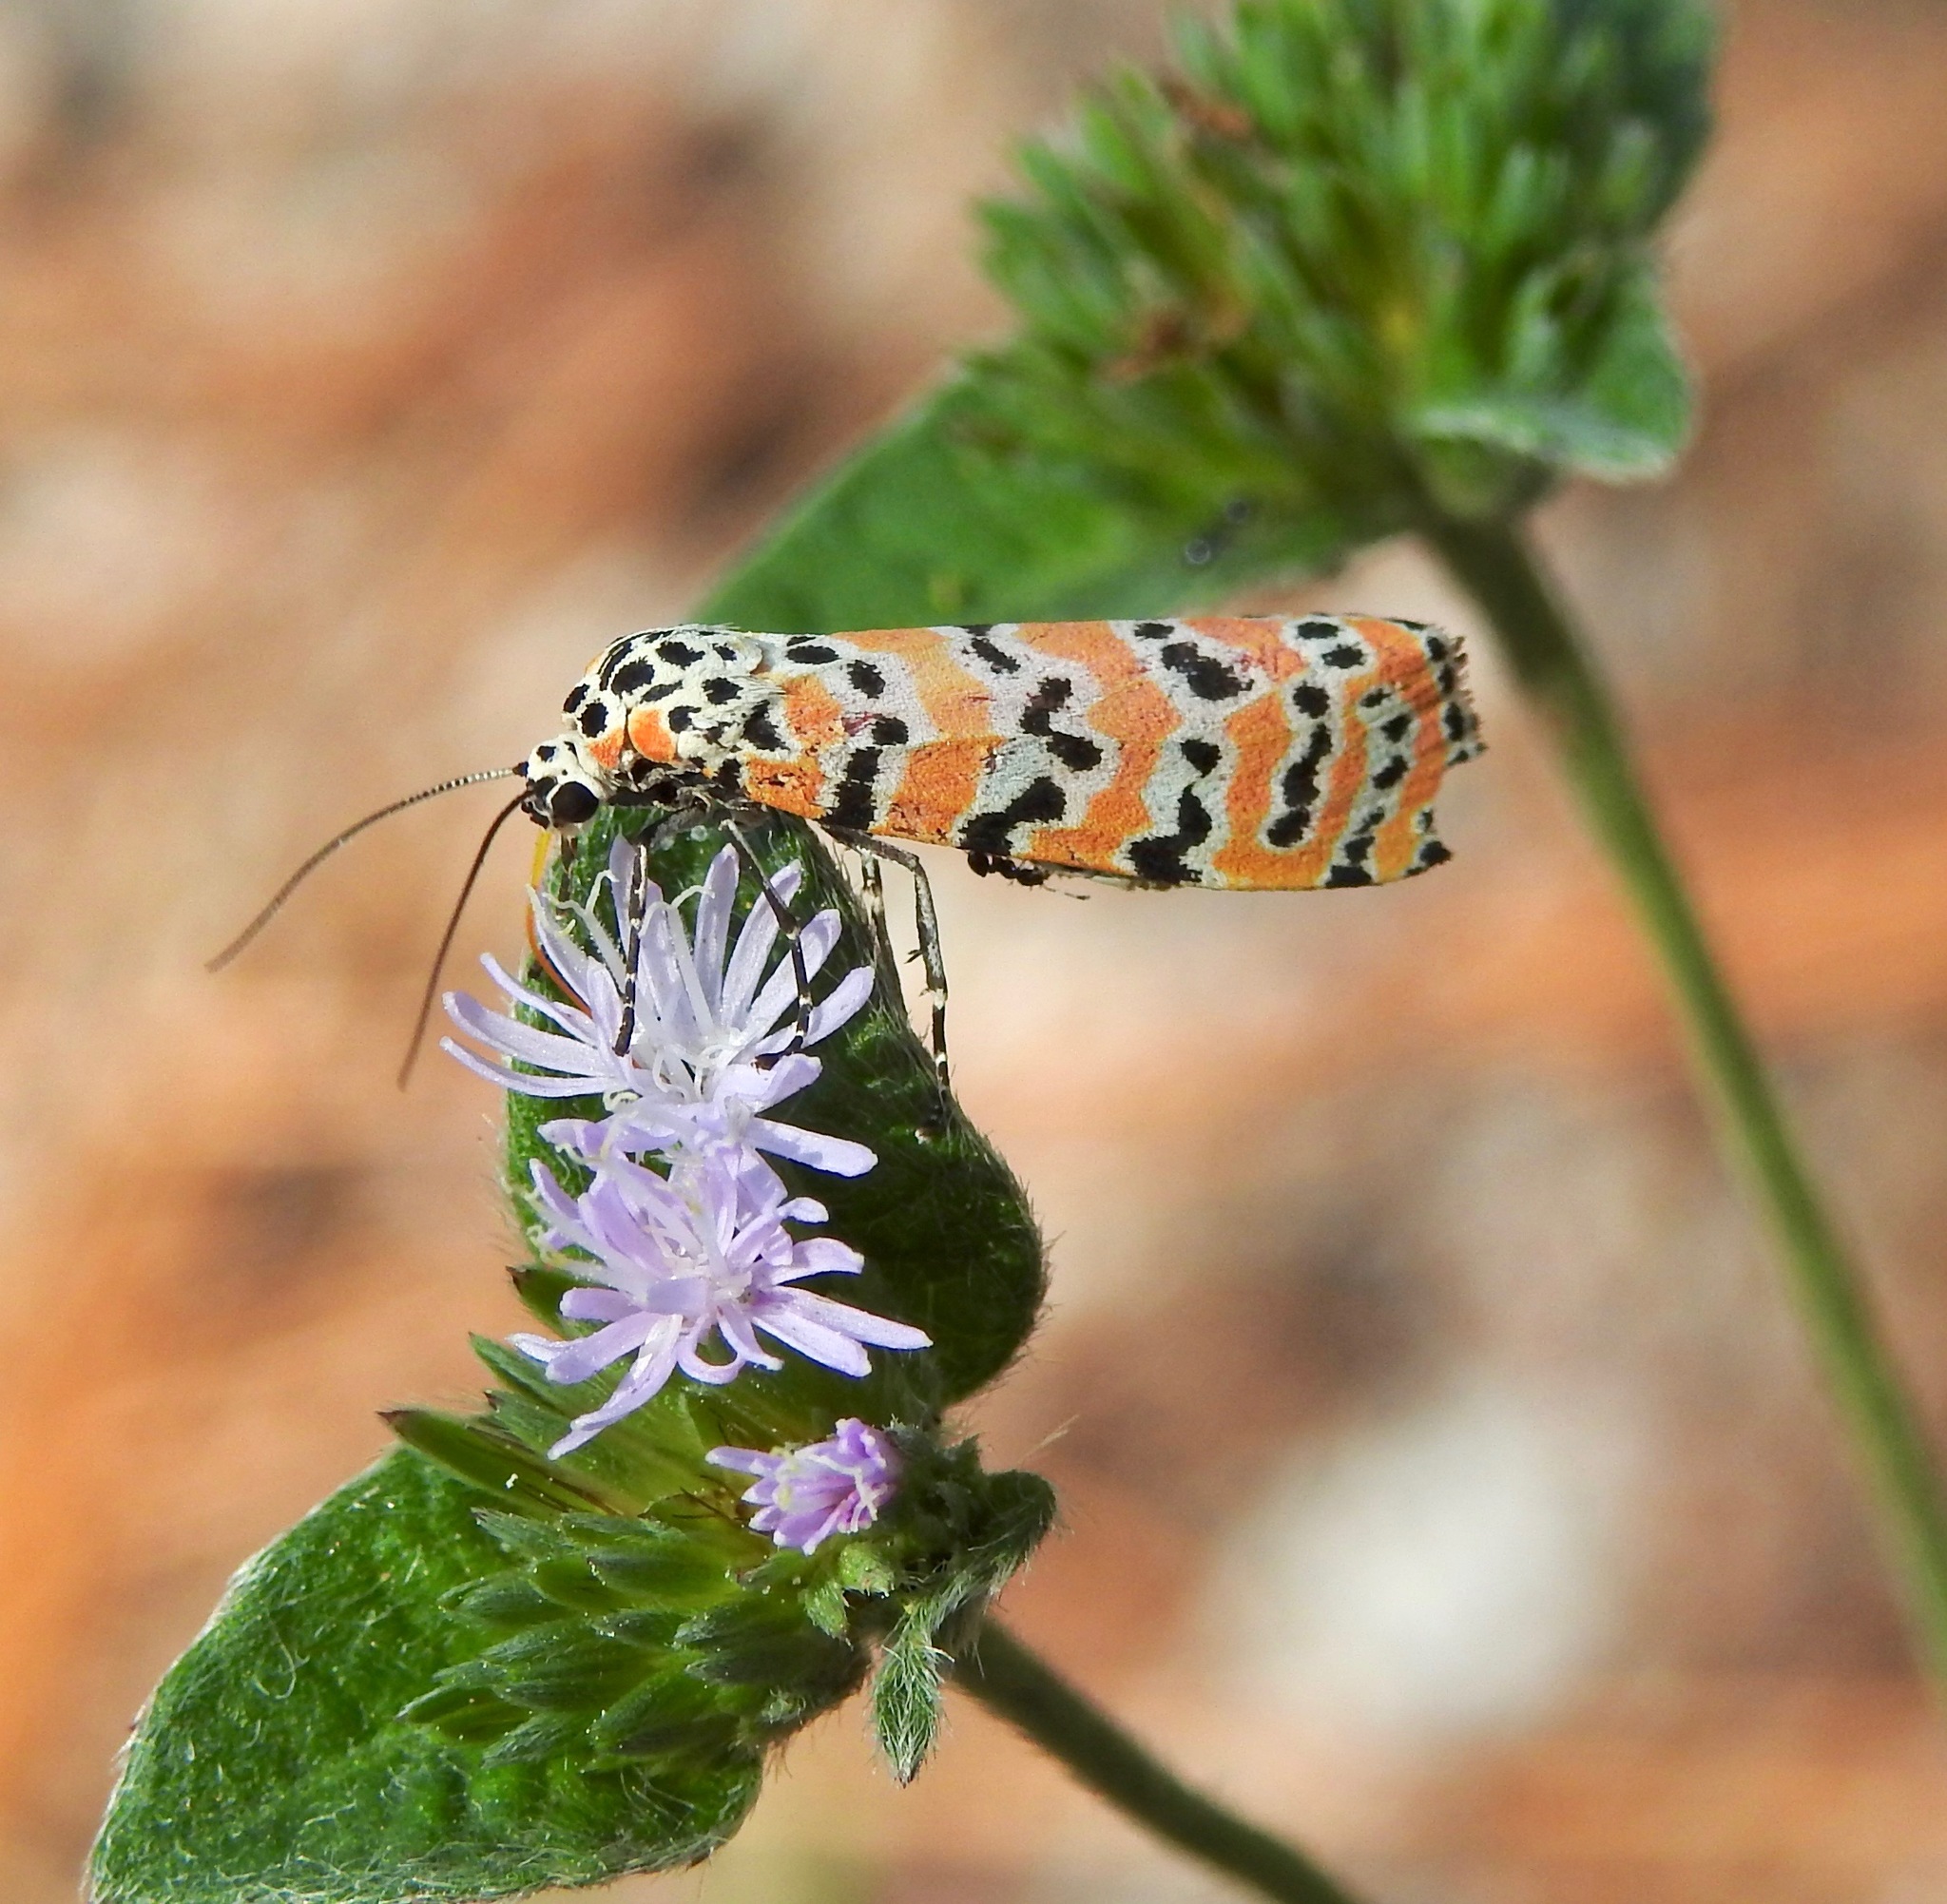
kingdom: Animalia
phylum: Arthropoda
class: Insecta
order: Lepidoptera
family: Erebidae
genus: Utetheisa
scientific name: Utetheisa ornatrix
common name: Beautiful utetheisa
